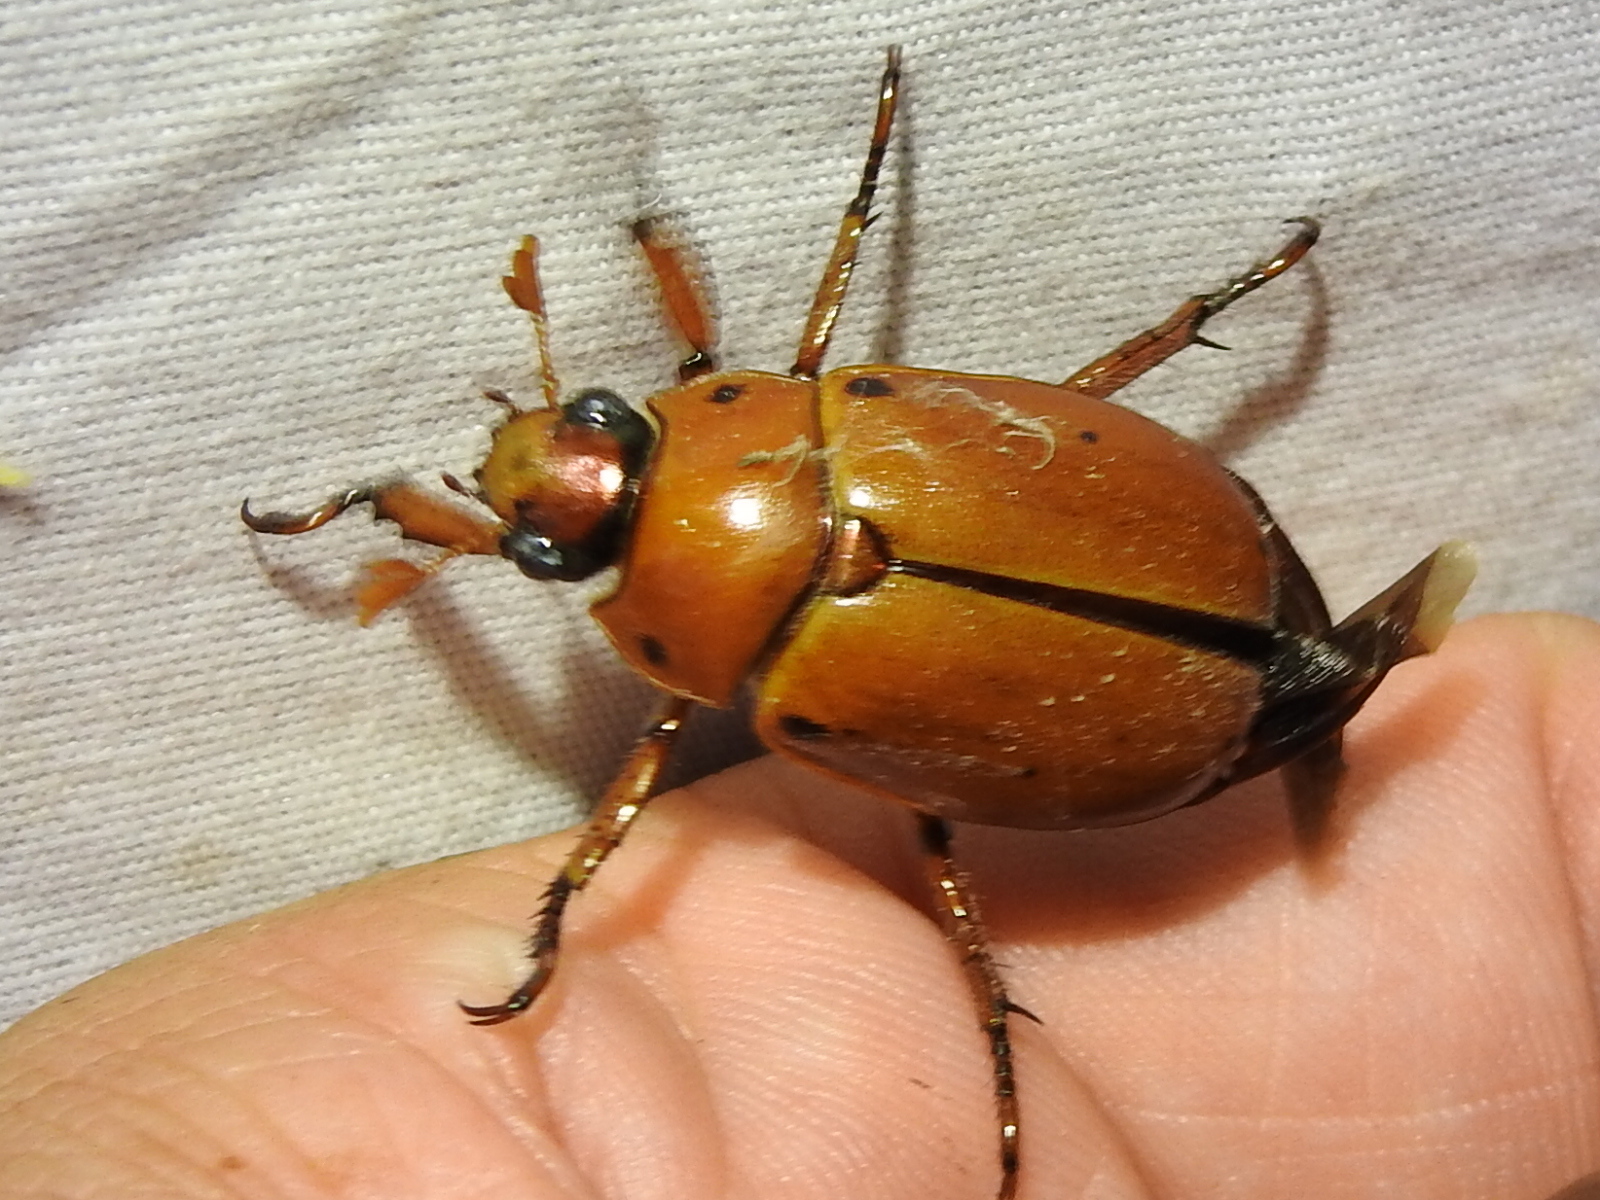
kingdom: Animalia
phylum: Arthropoda
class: Insecta
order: Coleoptera
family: Scarabaeidae
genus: Pelidnota
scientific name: Pelidnota punctata
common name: Grapevine beetle
